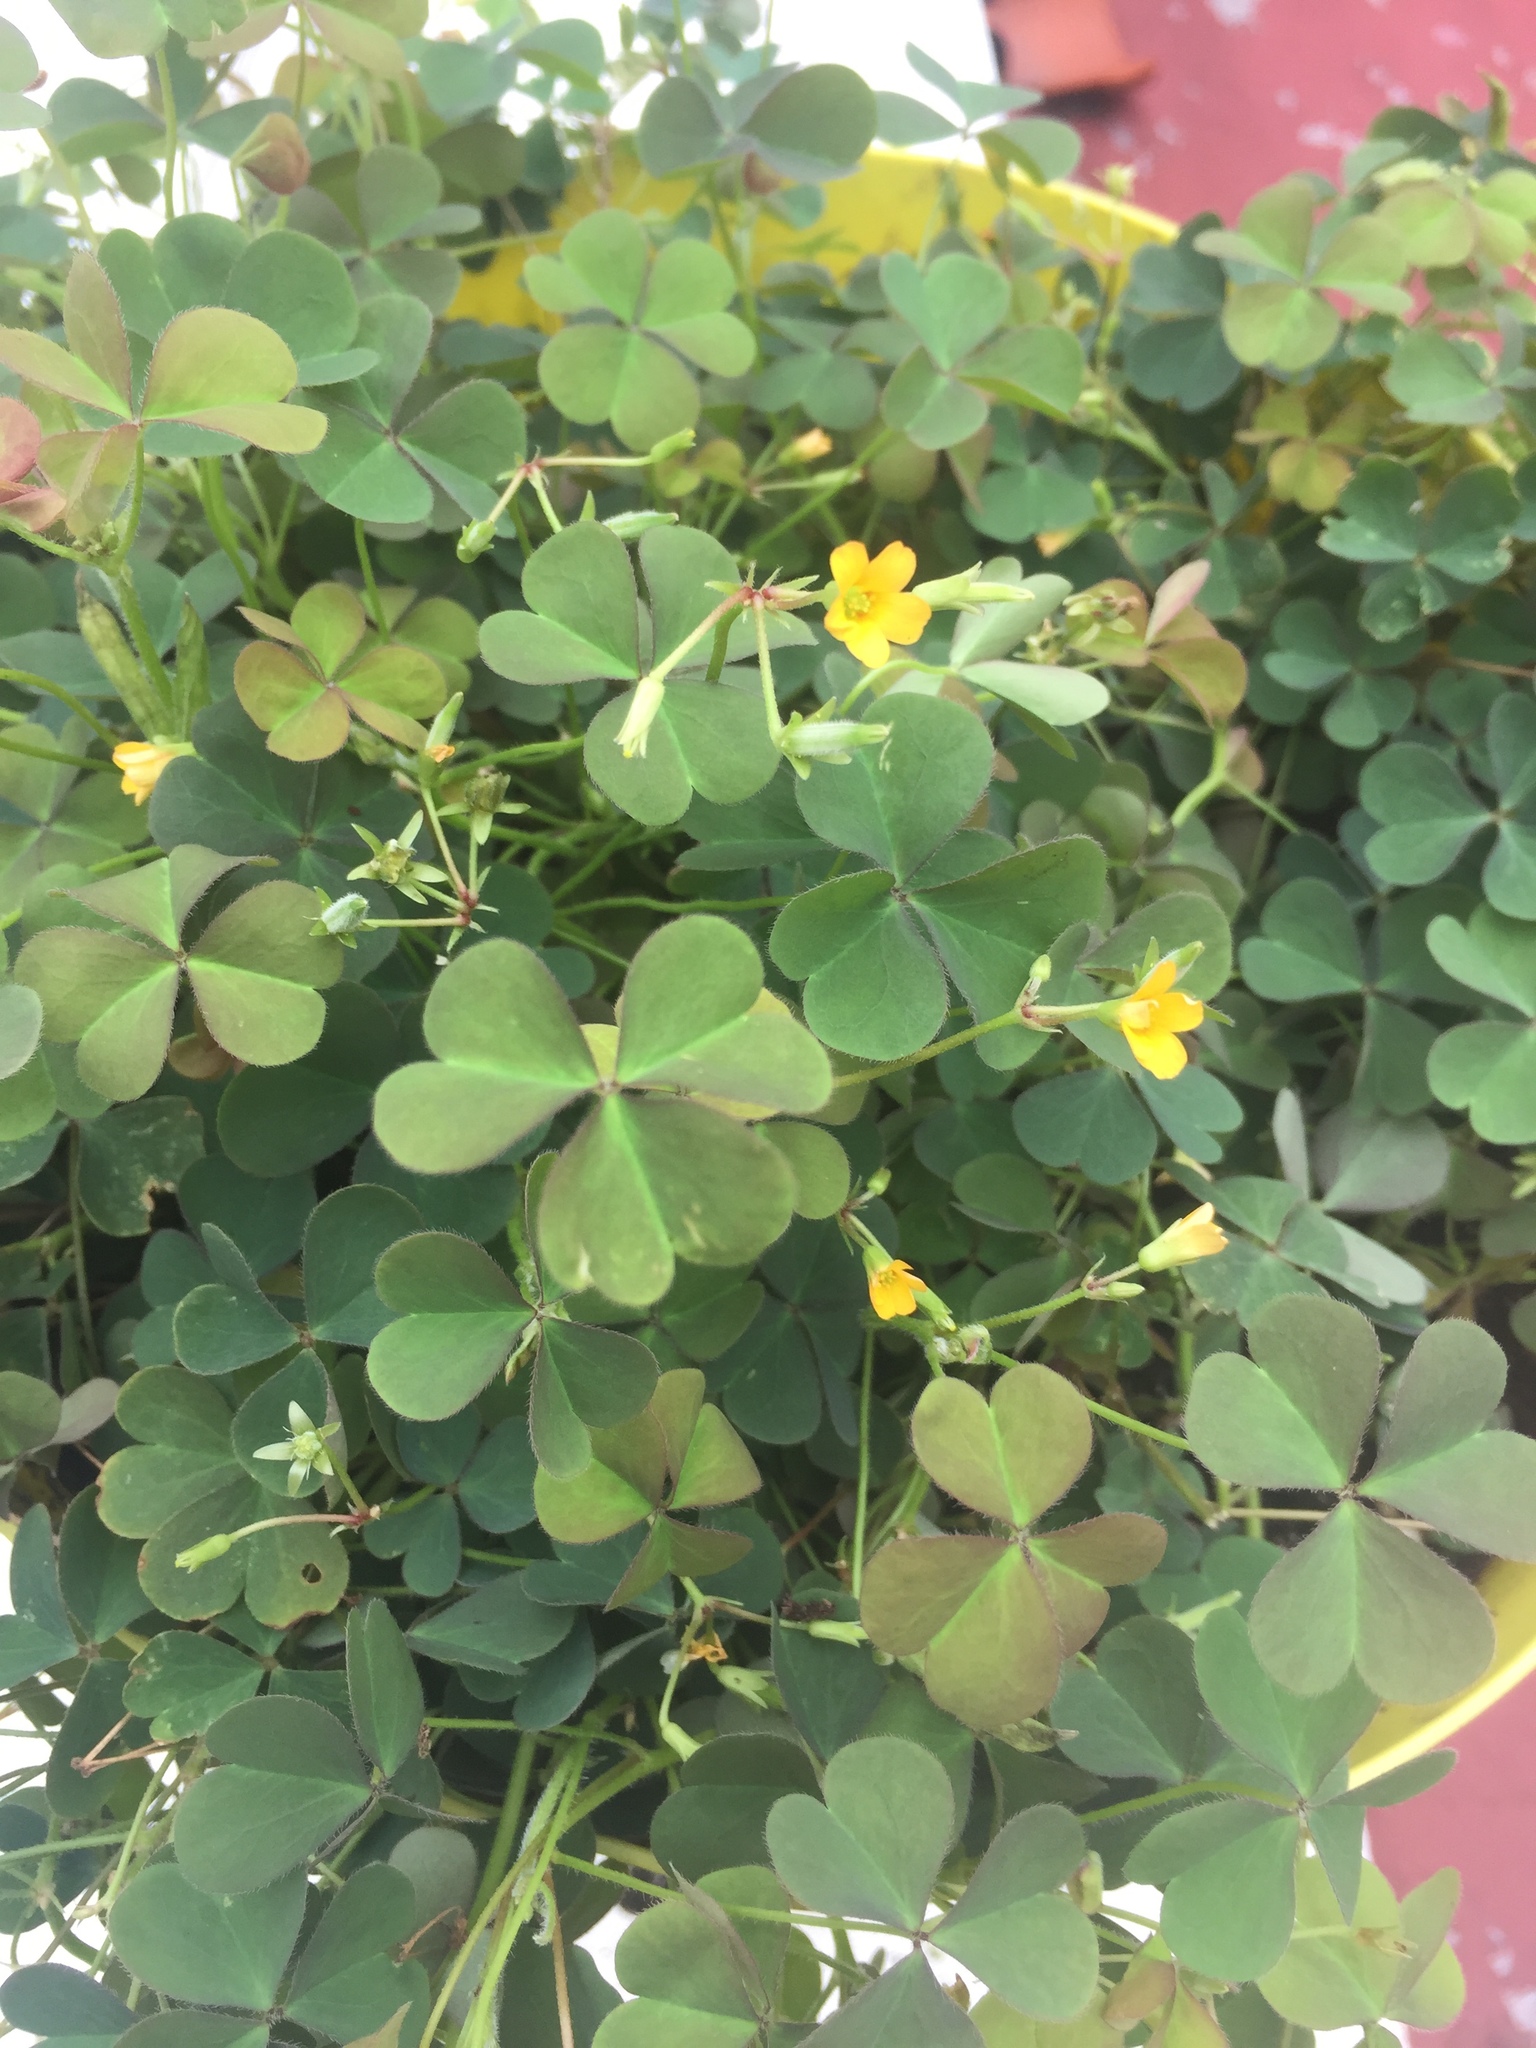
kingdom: Plantae
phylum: Tracheophyta
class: Magnoliopsida
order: Oxalidales
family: Oxalidaceae
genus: Oxalis
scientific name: Oxalis corniculata
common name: Procumbent yellow-sorrel
